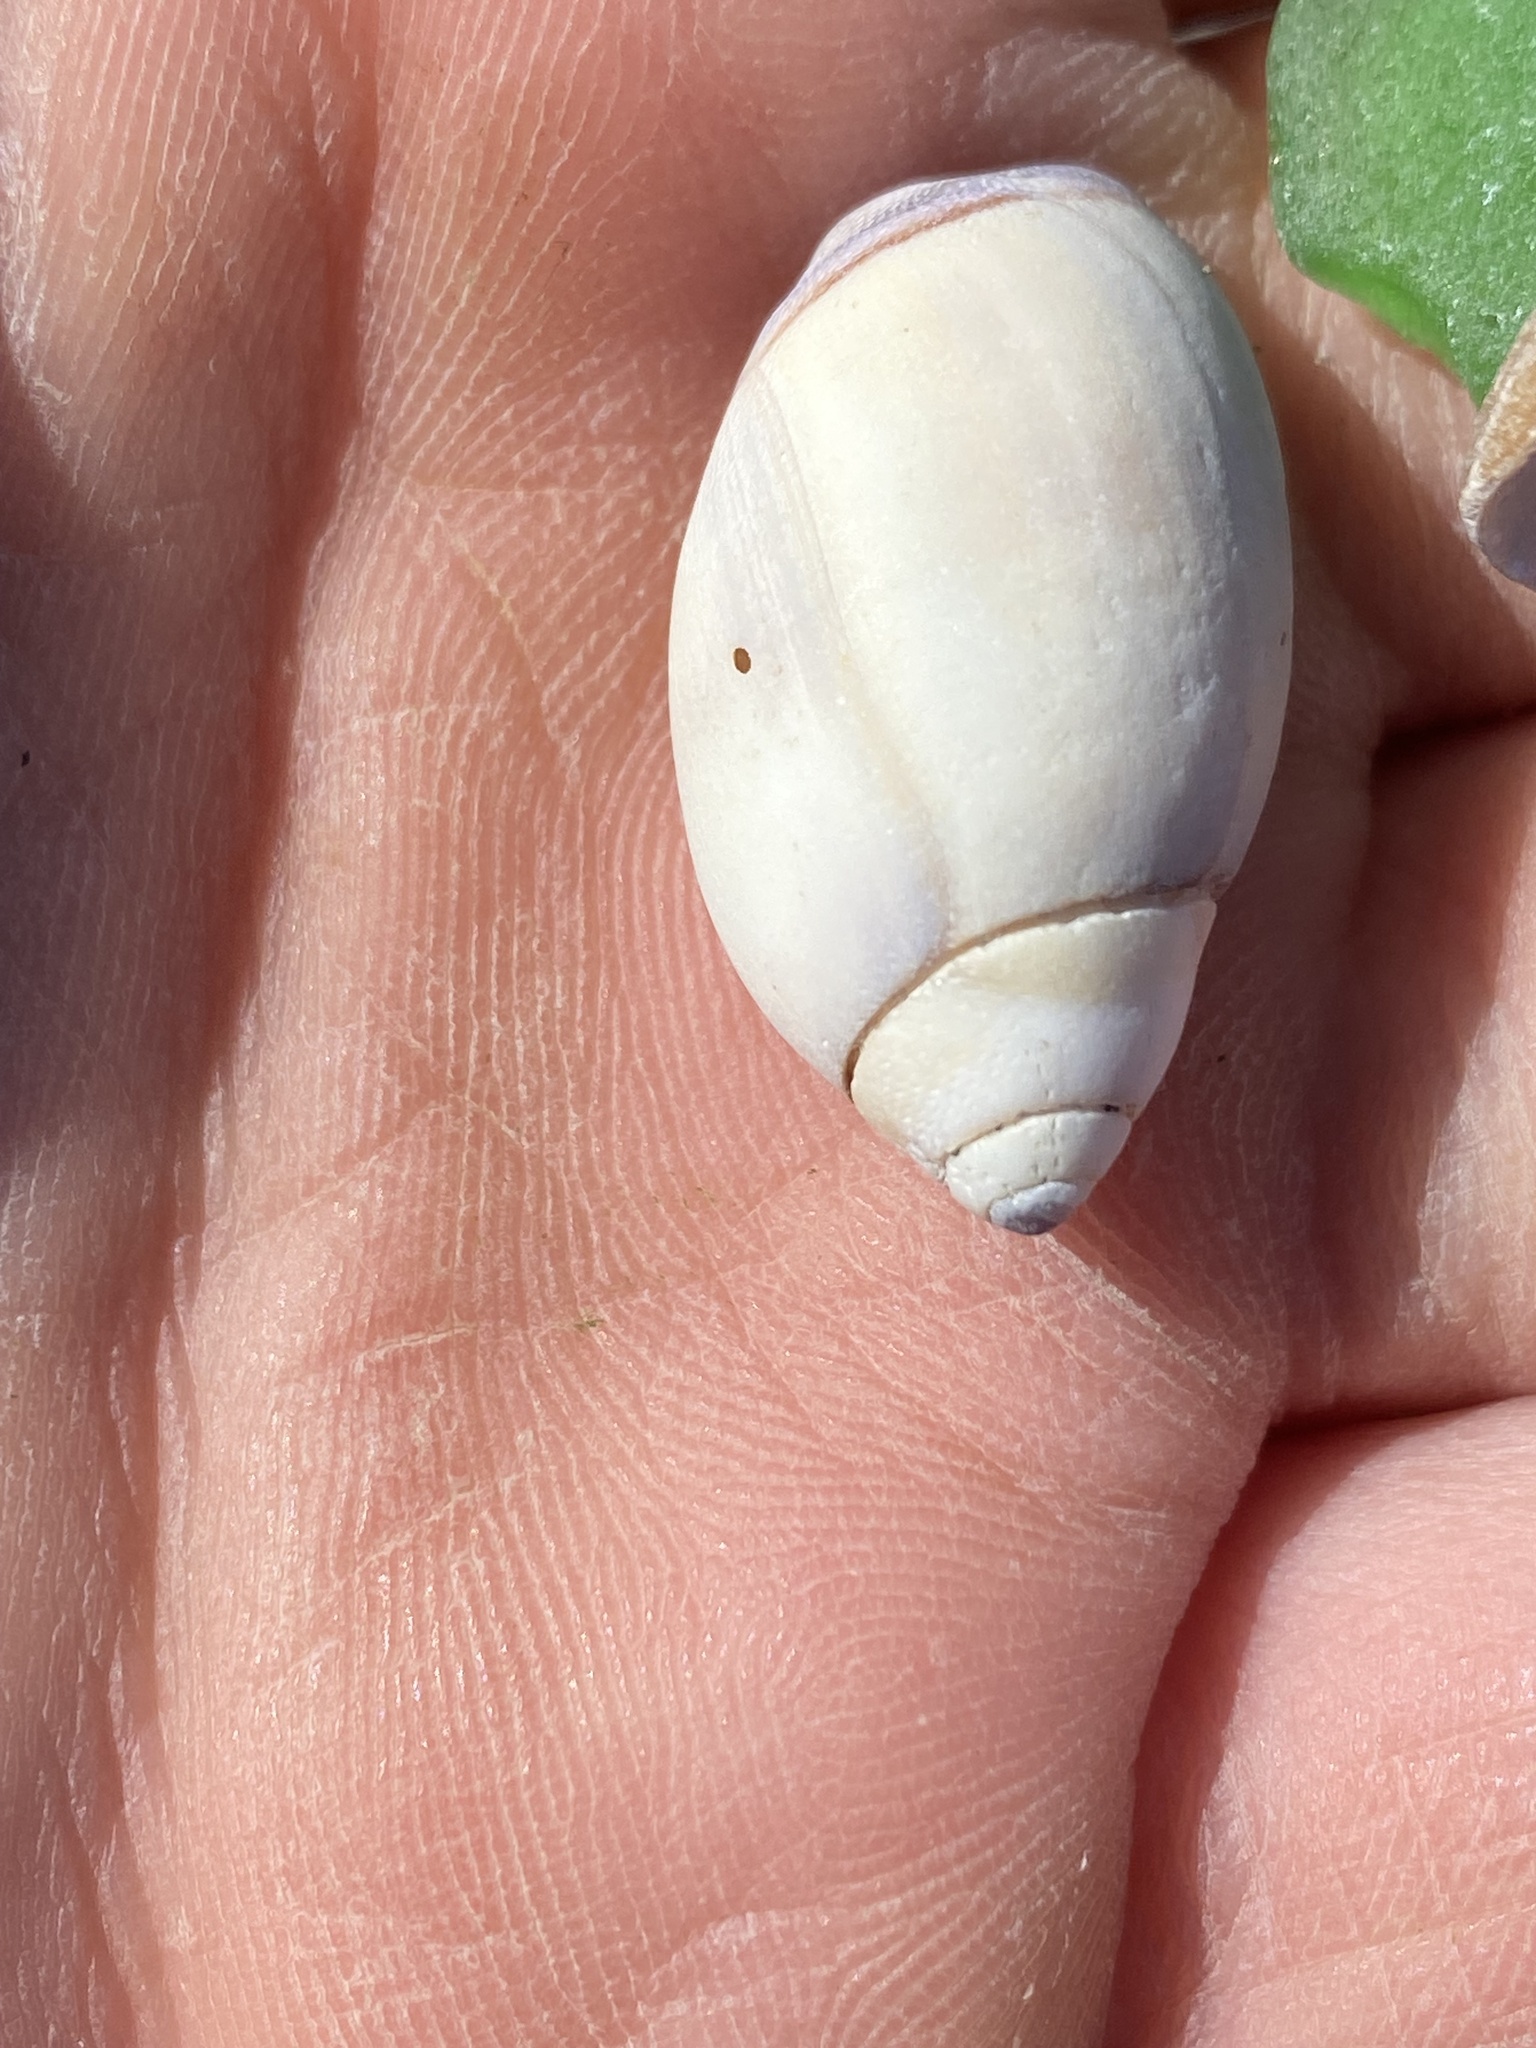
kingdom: Animalia
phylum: Mollusca
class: Gastropoda
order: Neogastropoda
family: Olividae
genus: Callianax
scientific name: Callianax biplicata
